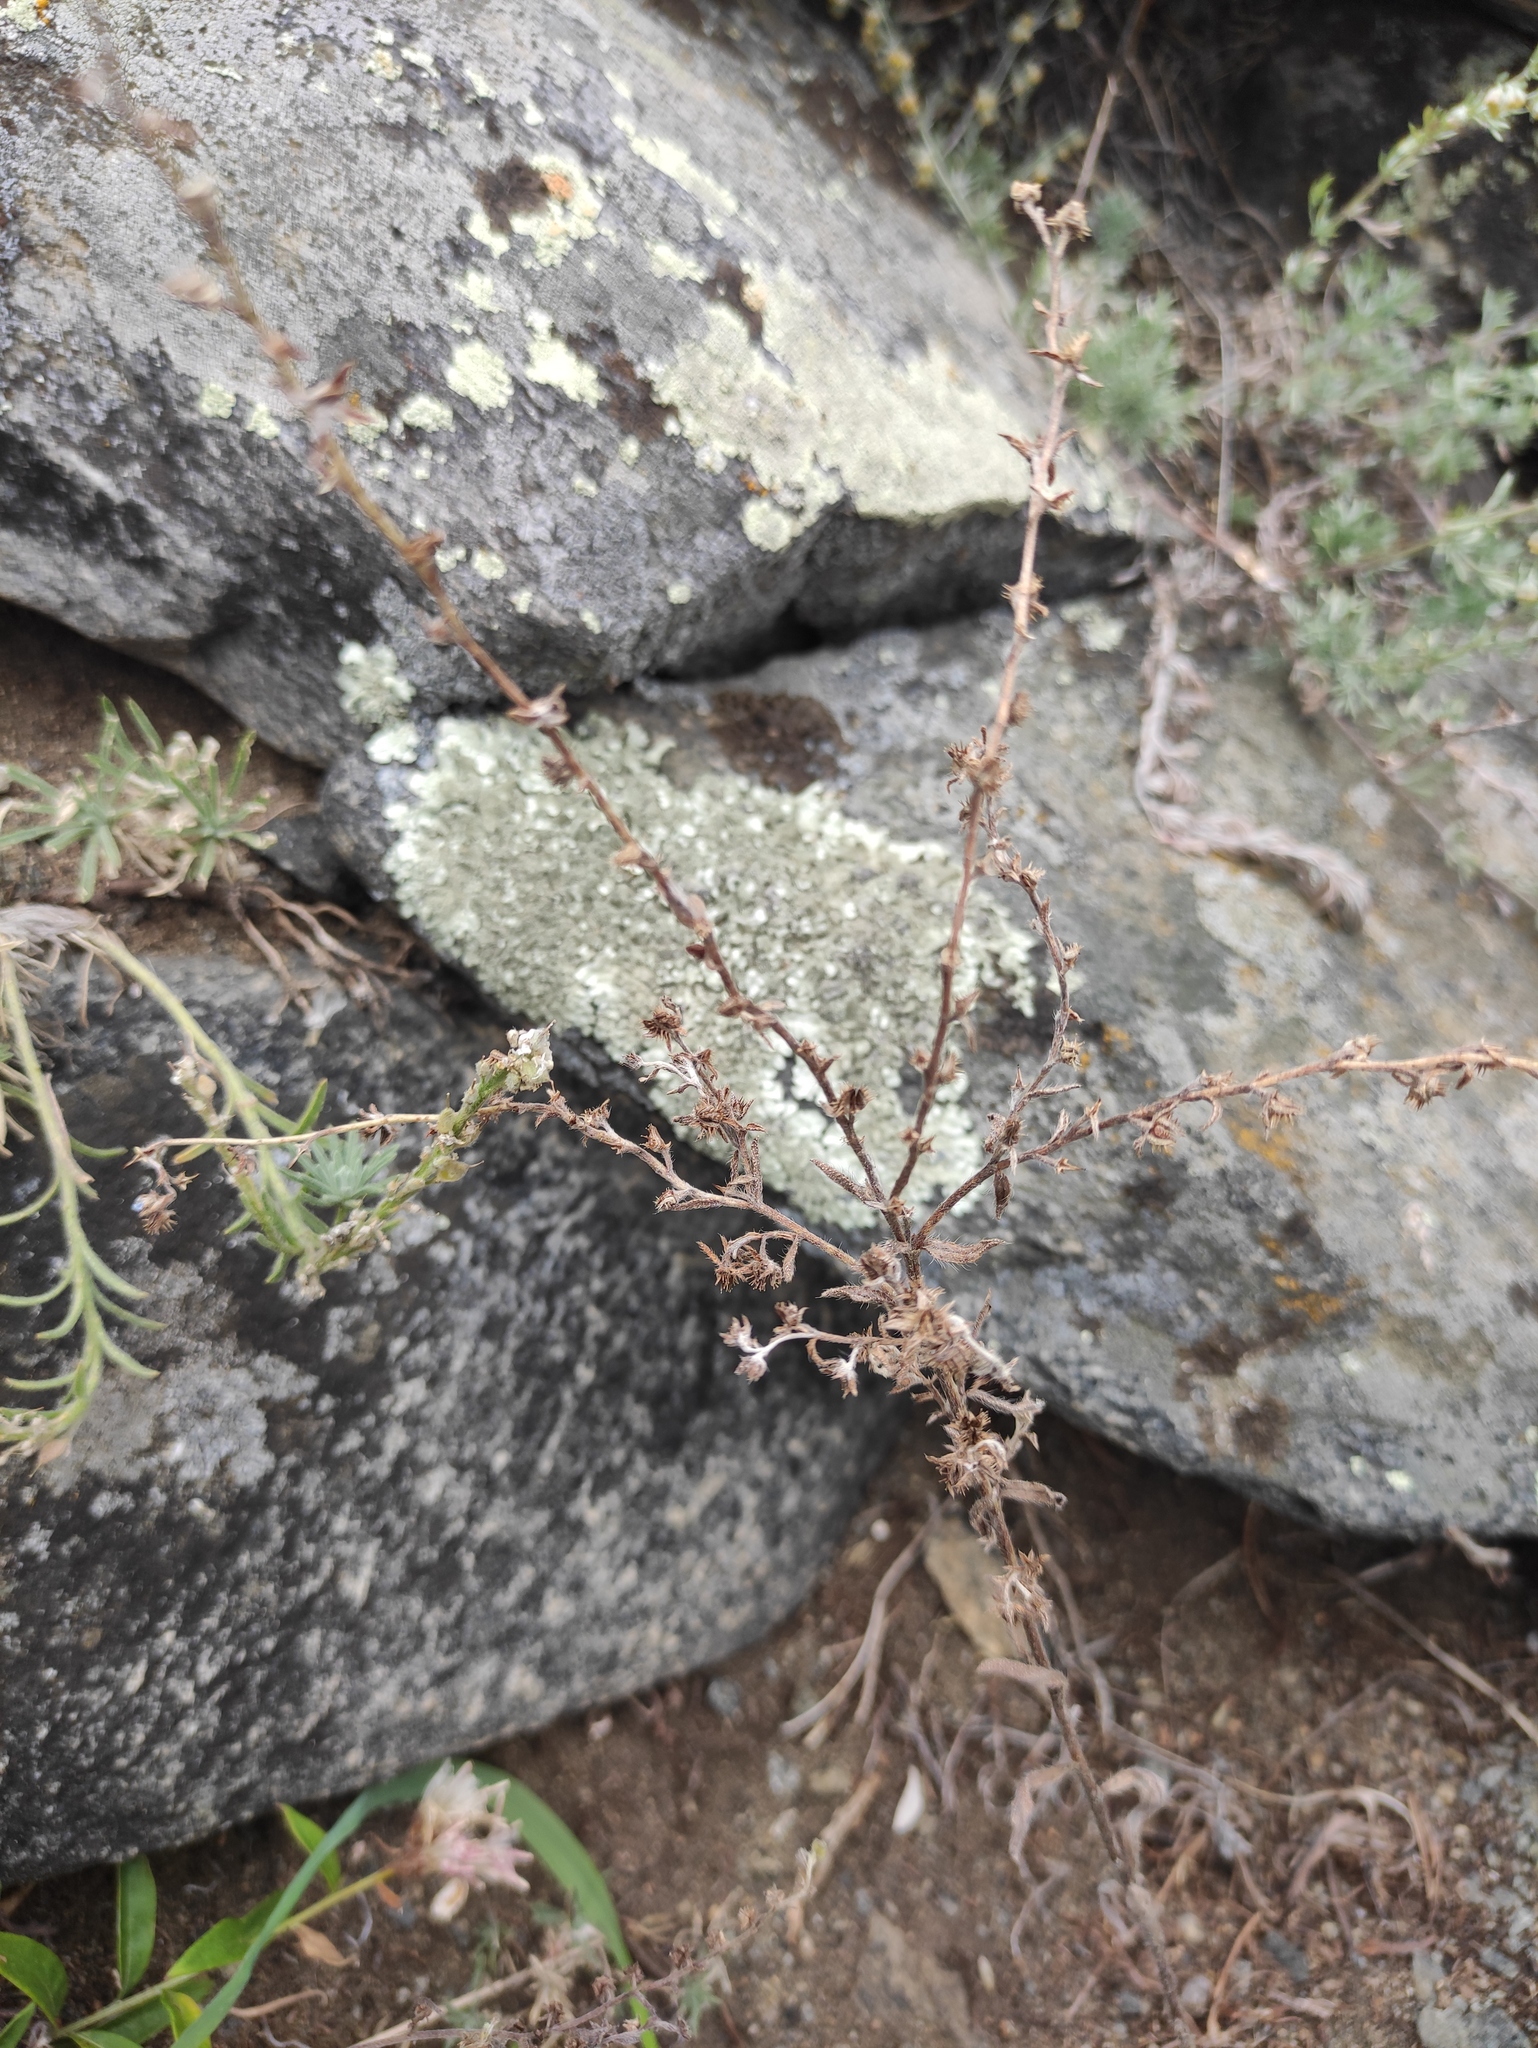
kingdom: Plantae
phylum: Tracheophyta
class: Magnoliopsida
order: Boraginales
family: Boraginaceae
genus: Hackelia
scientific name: Hackelia deflexa
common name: Nodding stickseed
